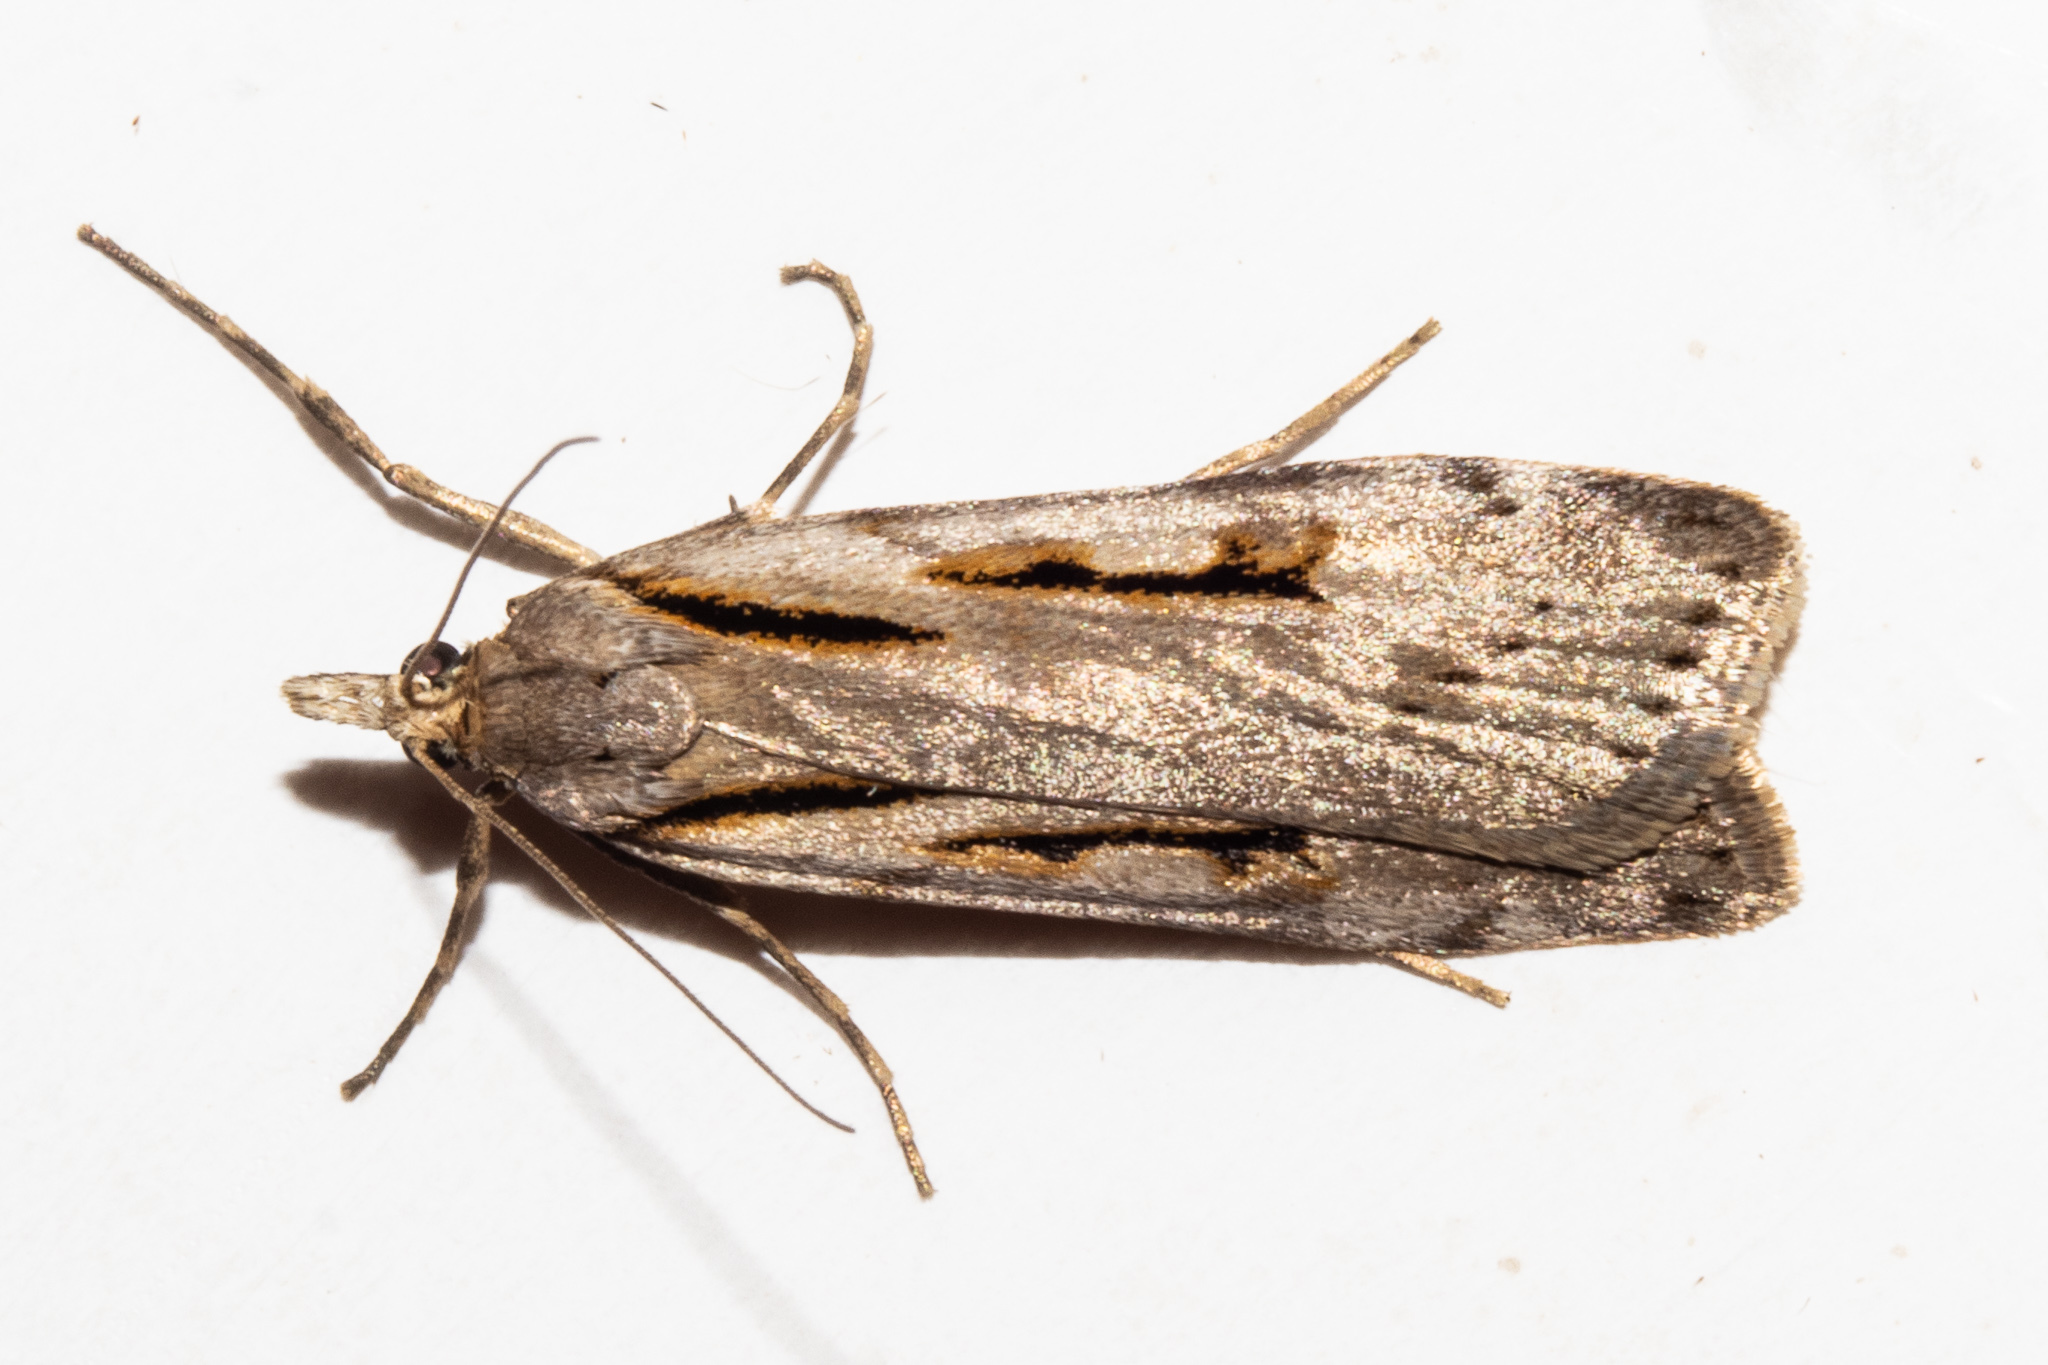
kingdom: Animalia
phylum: Arthropoda
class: Insecta
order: Lepidoptera
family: Crambidae
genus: Scoparia
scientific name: Scoparia rotuellus
